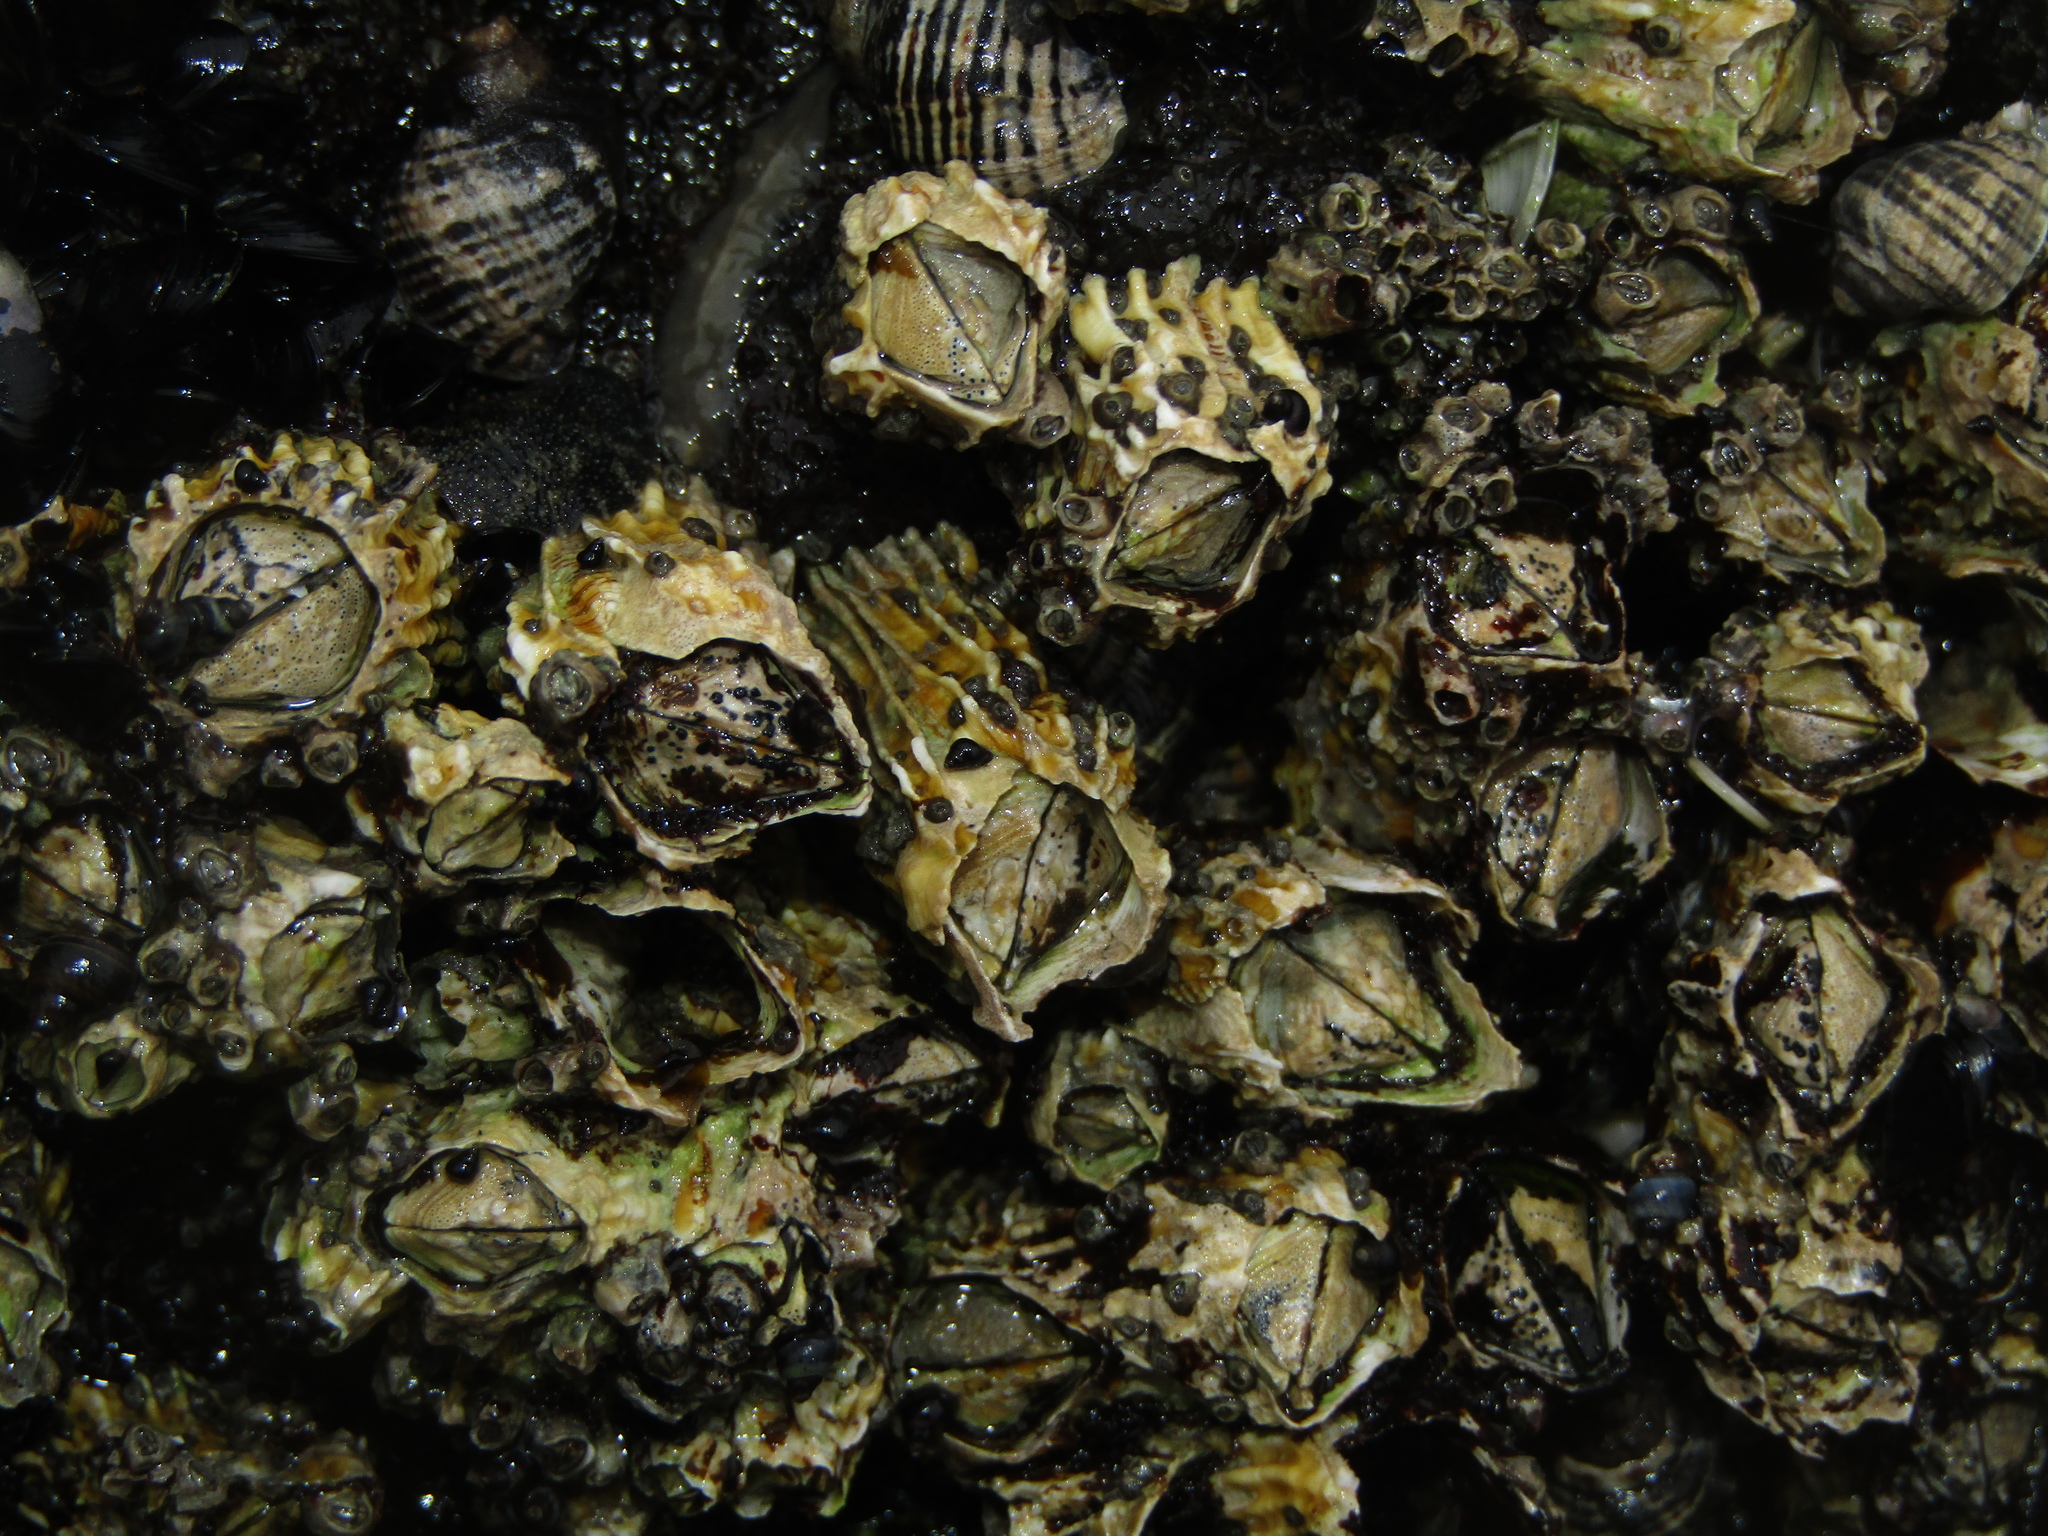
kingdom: Animalia
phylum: Arthropoda
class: Maxillopoda
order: Sessilia
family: Tetraclitidae
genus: Epopella
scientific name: Epopella plicata
